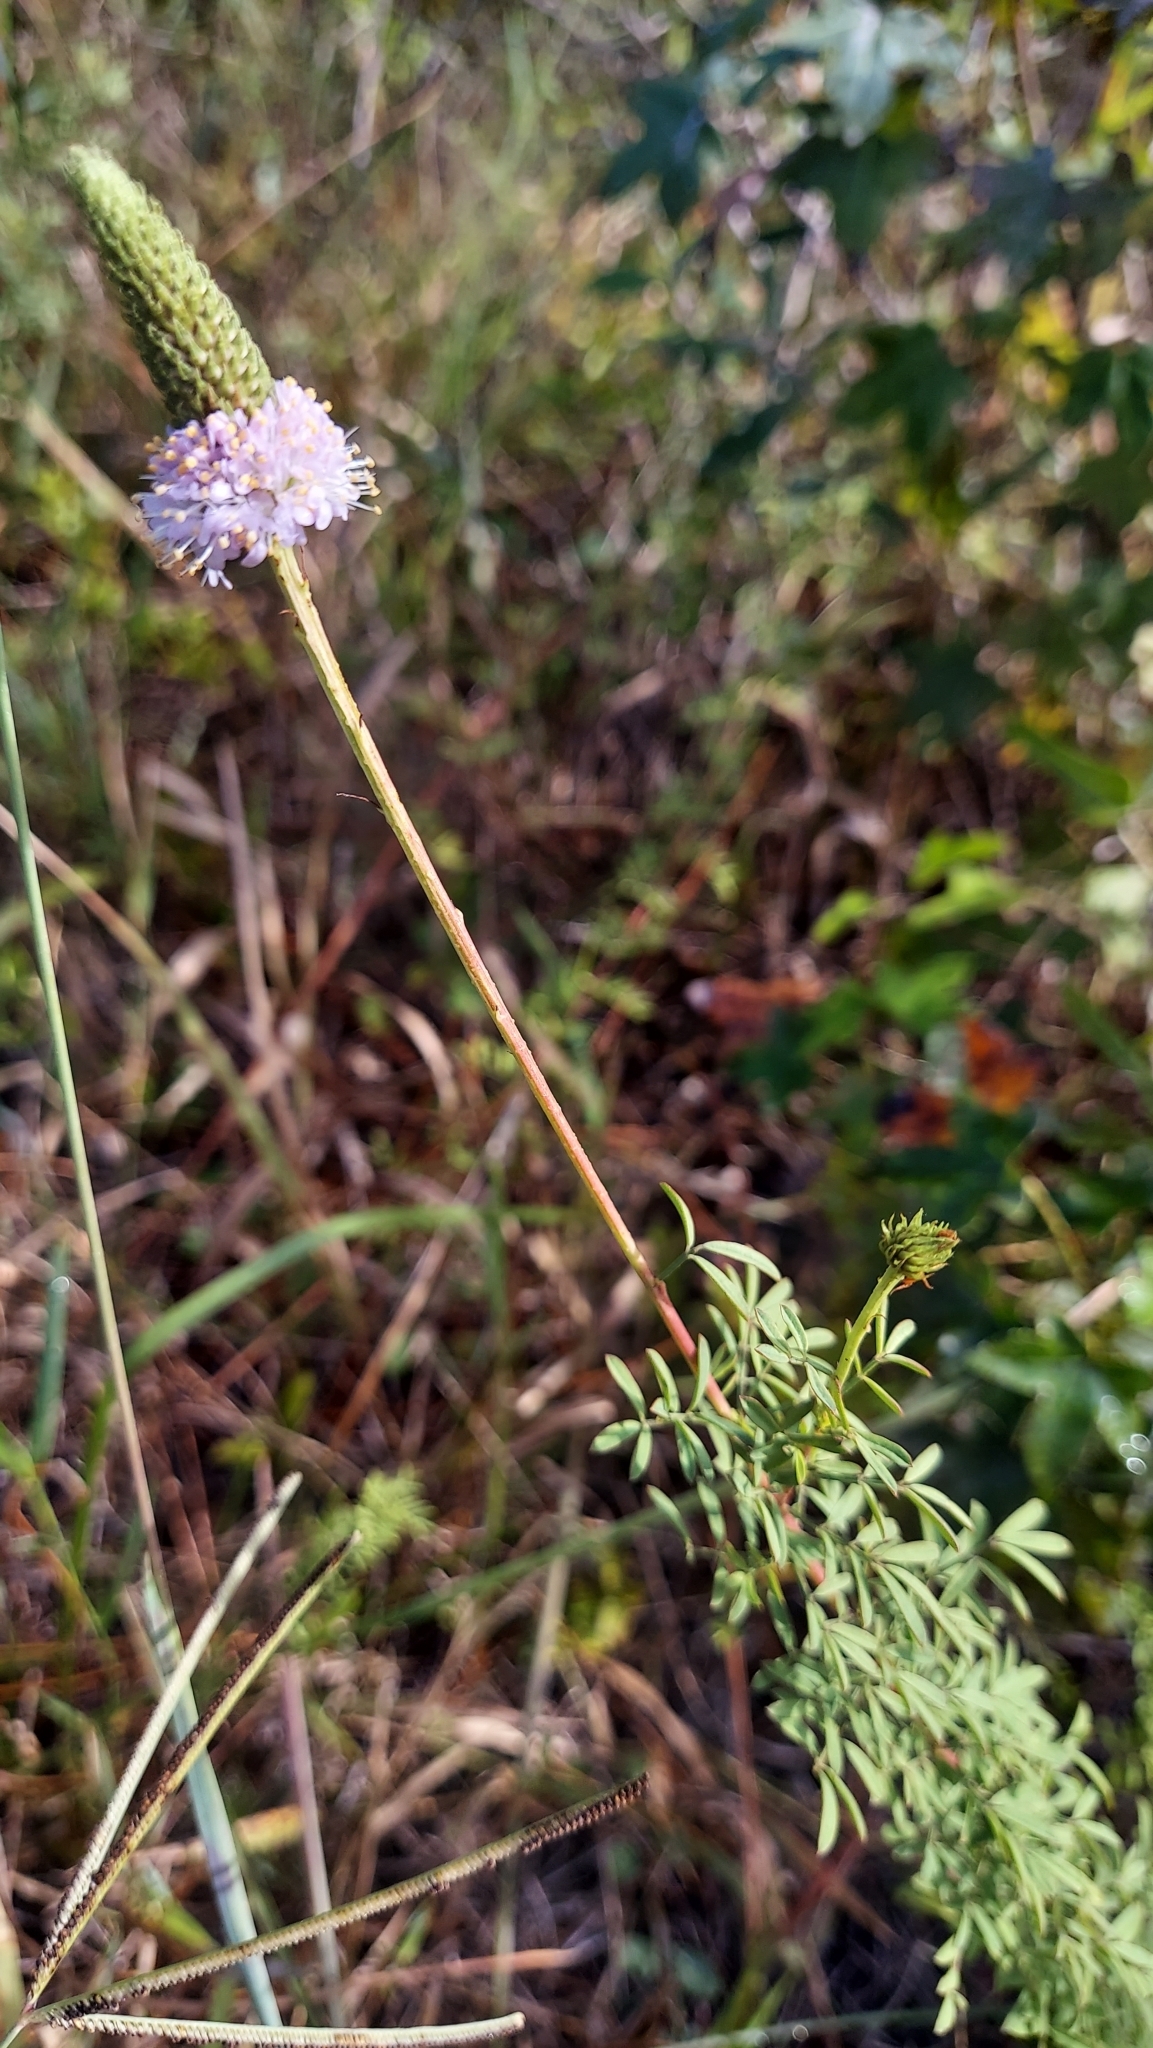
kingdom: Plantae
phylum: Tracheophyta
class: Magnoliopsida
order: Fabales
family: Fabaceae
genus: Dalea
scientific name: Dalea carnea
